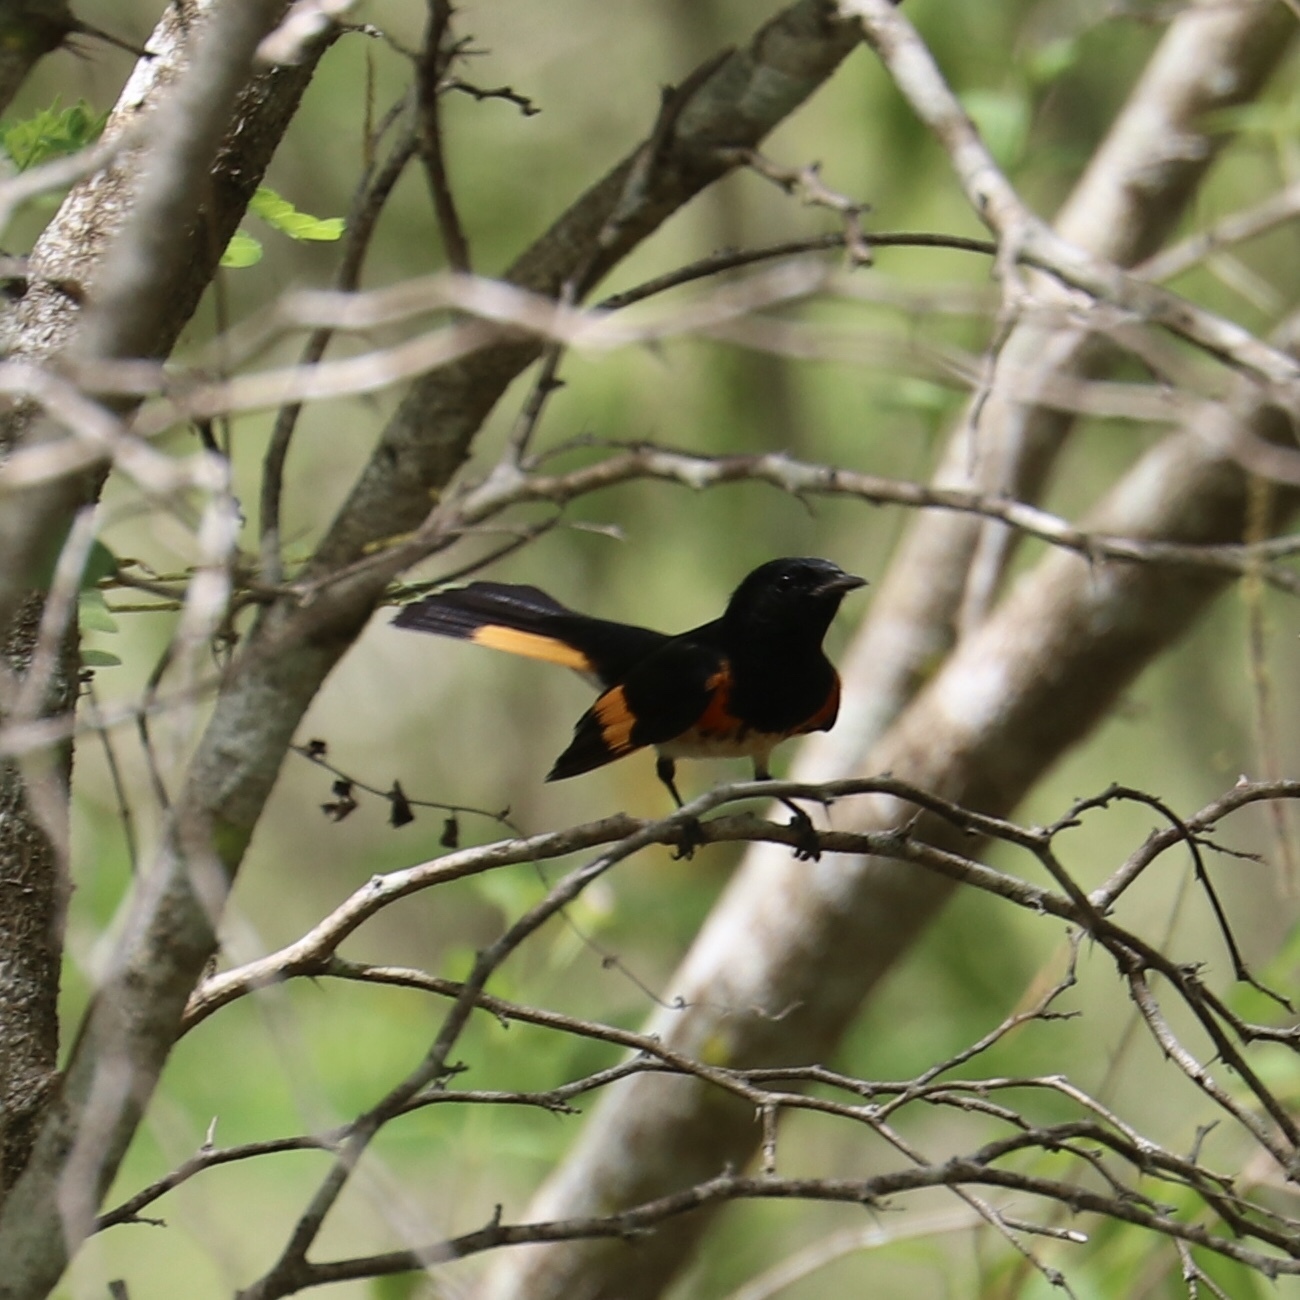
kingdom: Animalia
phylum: Chordata
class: Aves
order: Passeriformes
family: Parulidae
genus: Setophaga
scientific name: Setophaga ruticilla
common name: American redstart
